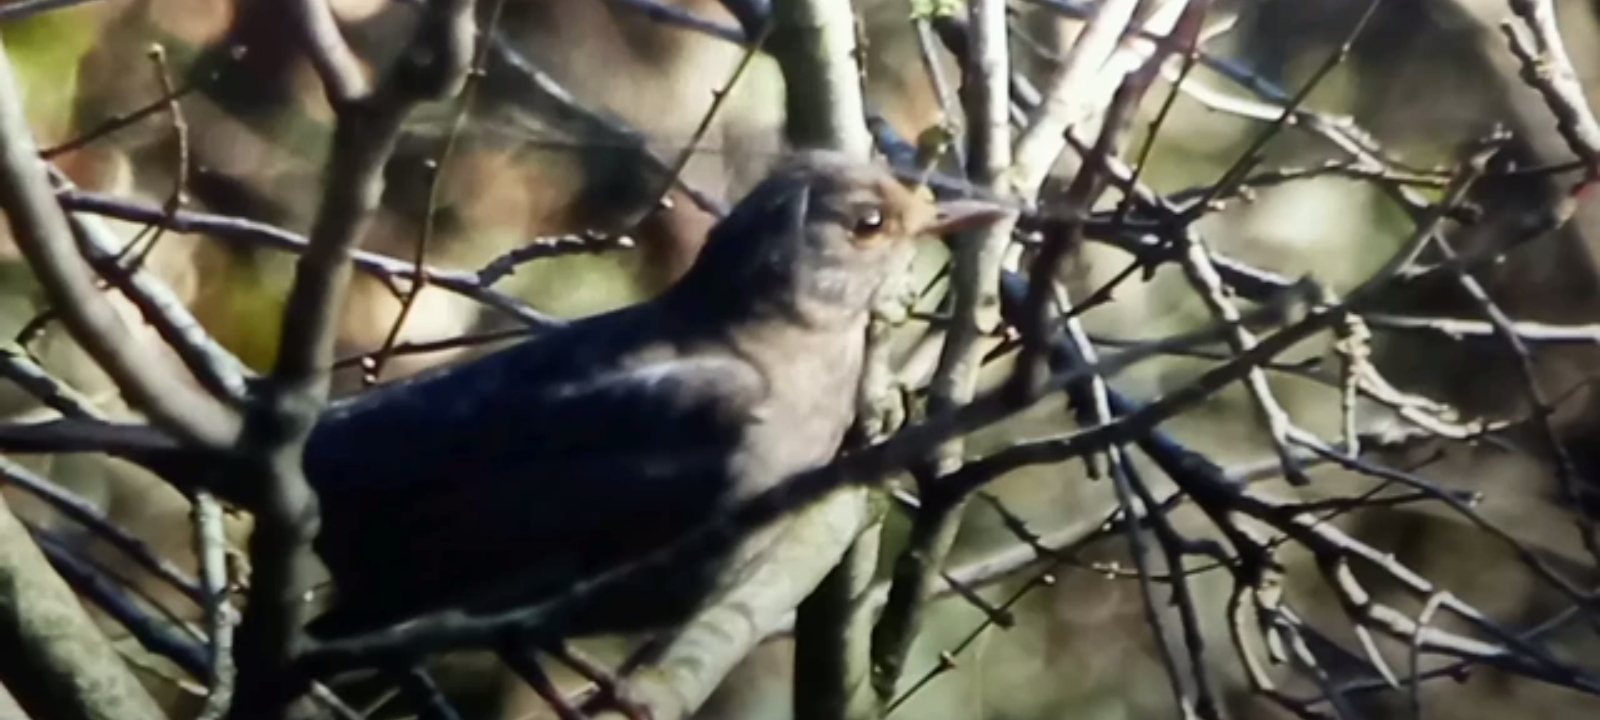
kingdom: Animalia
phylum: Chordata
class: Aves
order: Passeriformes
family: Turdidae
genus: Turdus
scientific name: Turdus merula
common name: Common blackbird
